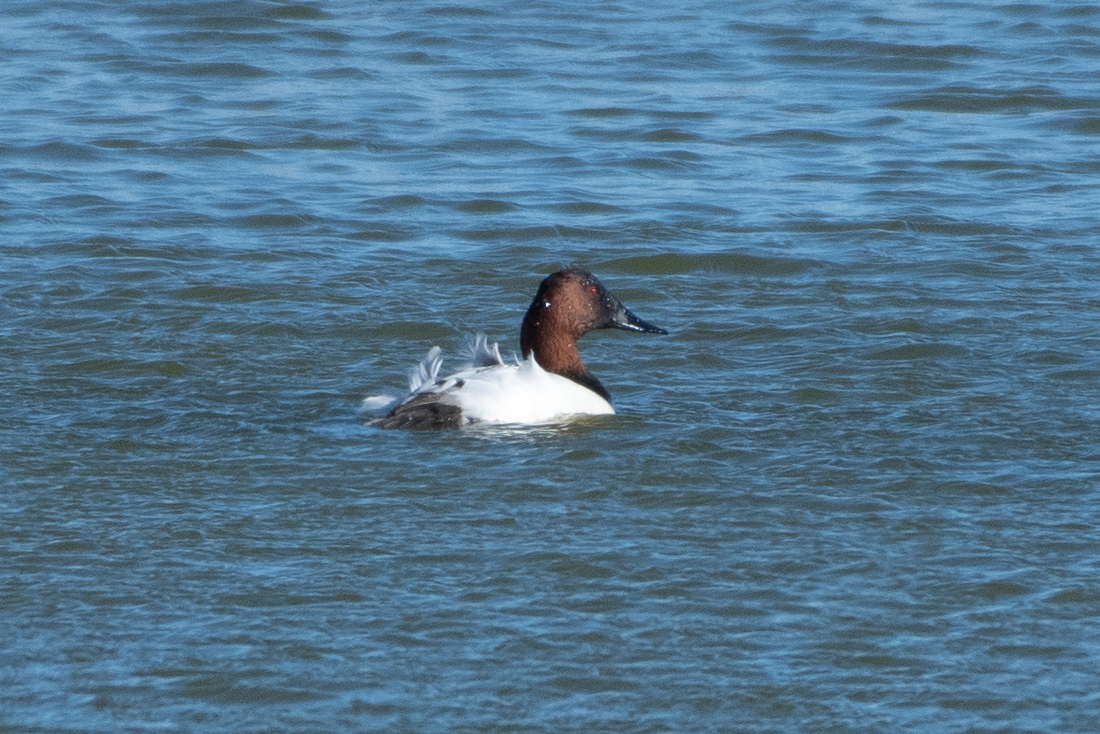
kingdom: Animalia
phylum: Chordata
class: Aves
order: Anseriformes
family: Anatidae
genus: Aythya
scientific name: Aythya valisineria
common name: Canvasback
